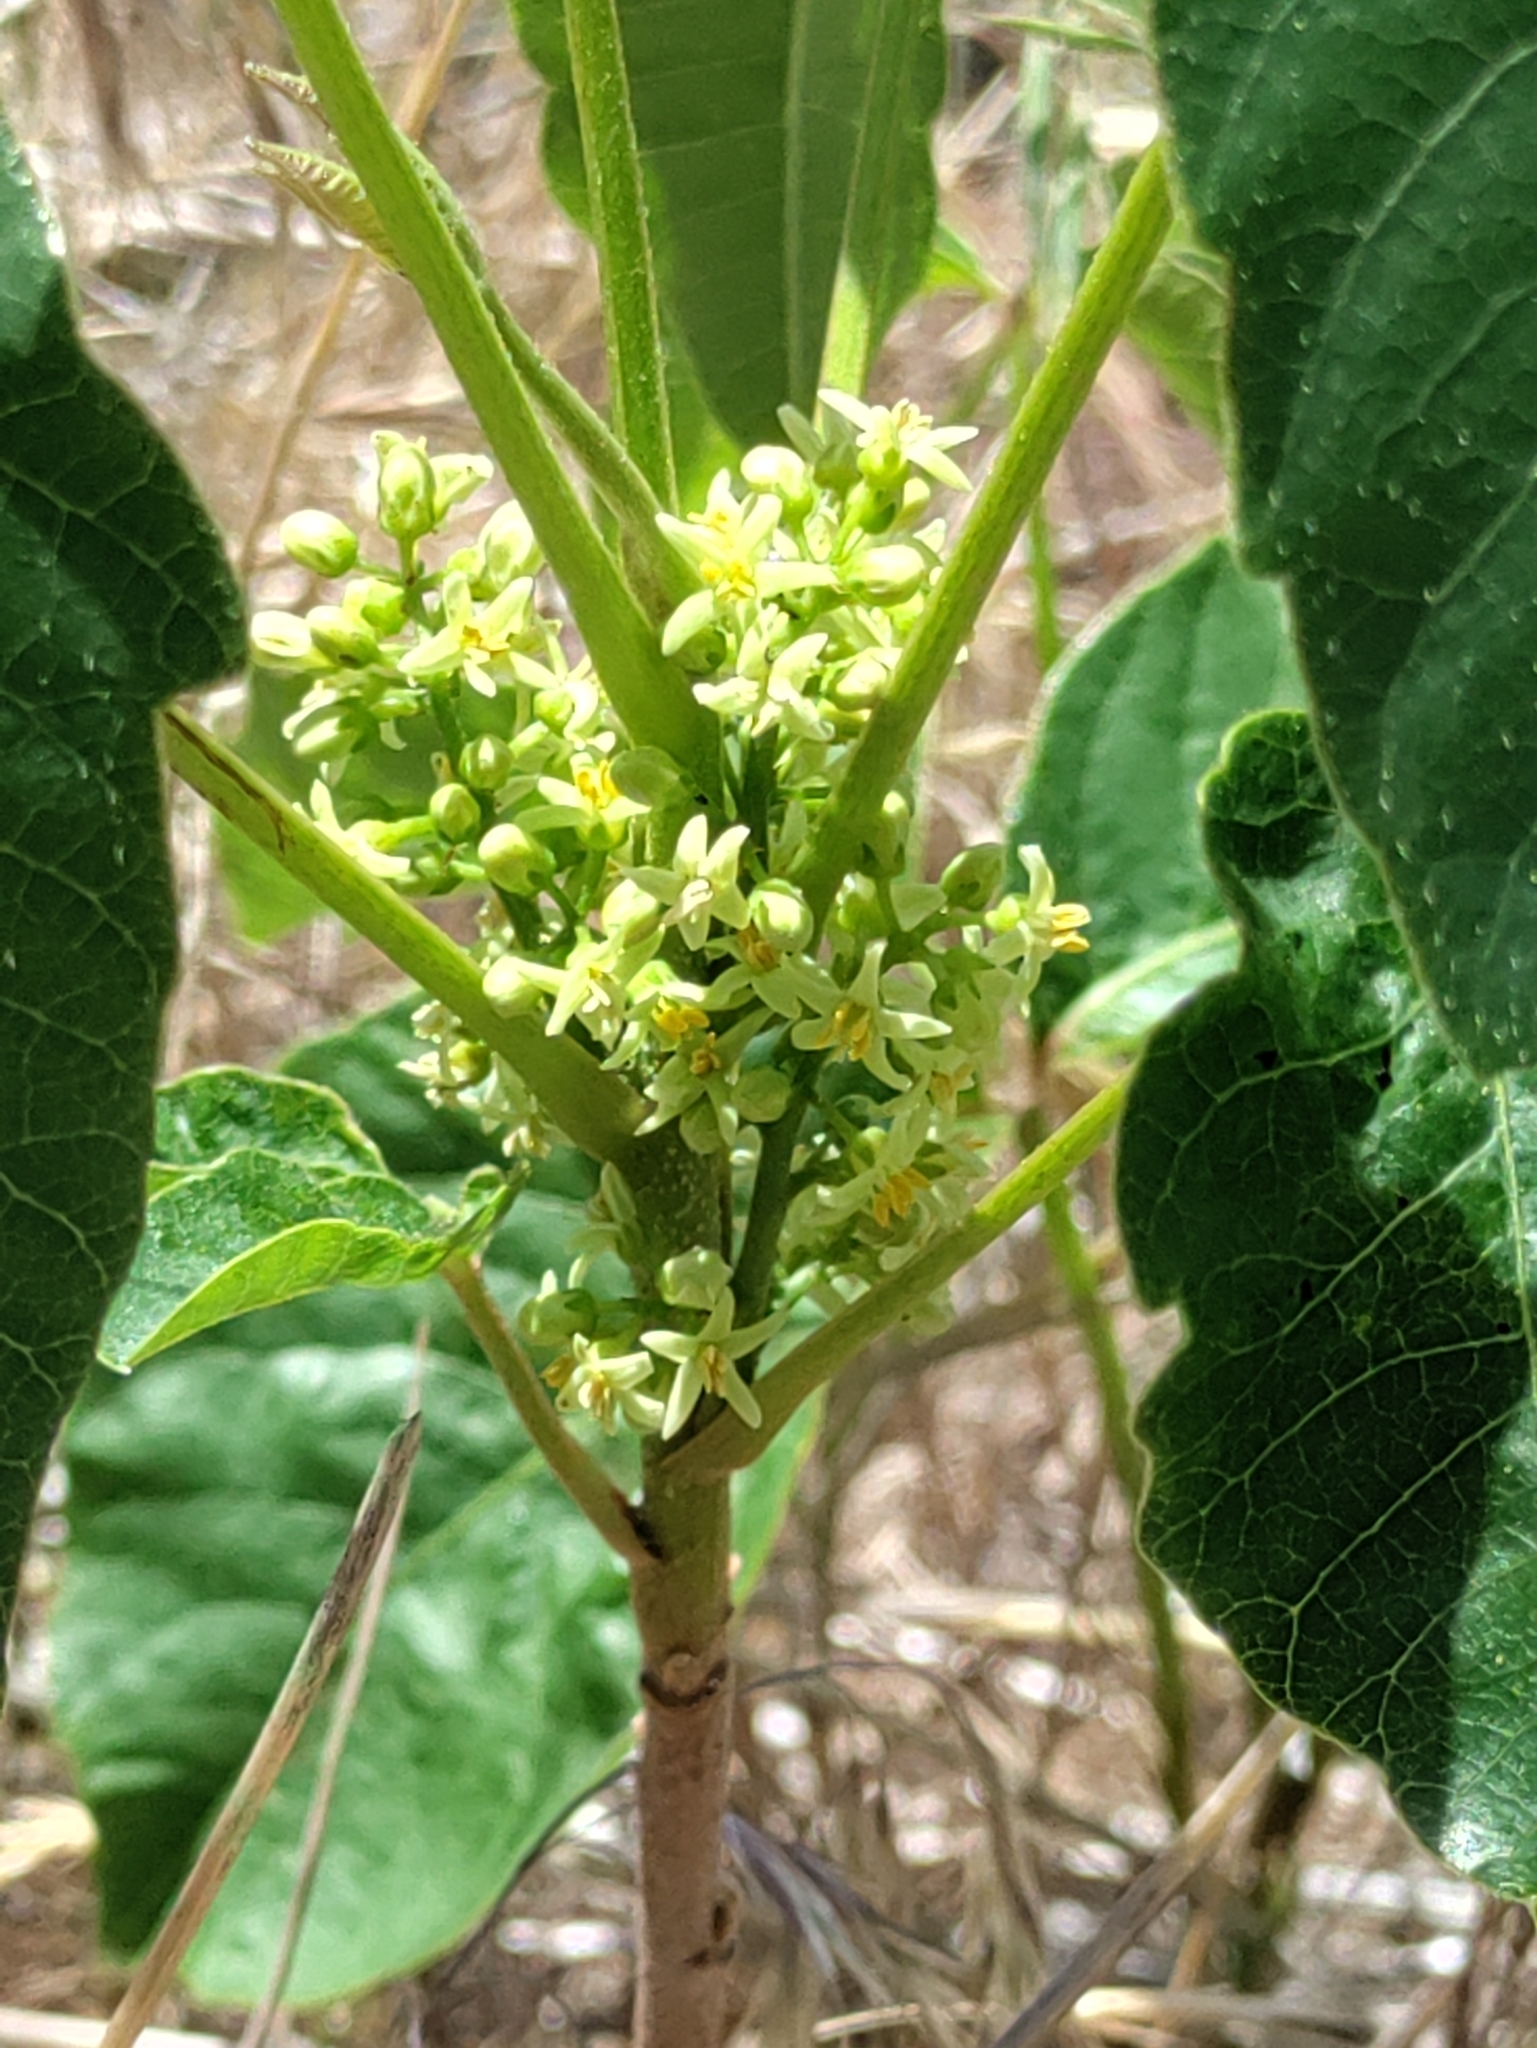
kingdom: Plantae
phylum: Tracheophyta
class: Magnoliopsida
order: Sapindales
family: Anacardiaceae
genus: Toxicodendron
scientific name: Toxicodendron rydbergii
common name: Rydberg's poison-ivy
